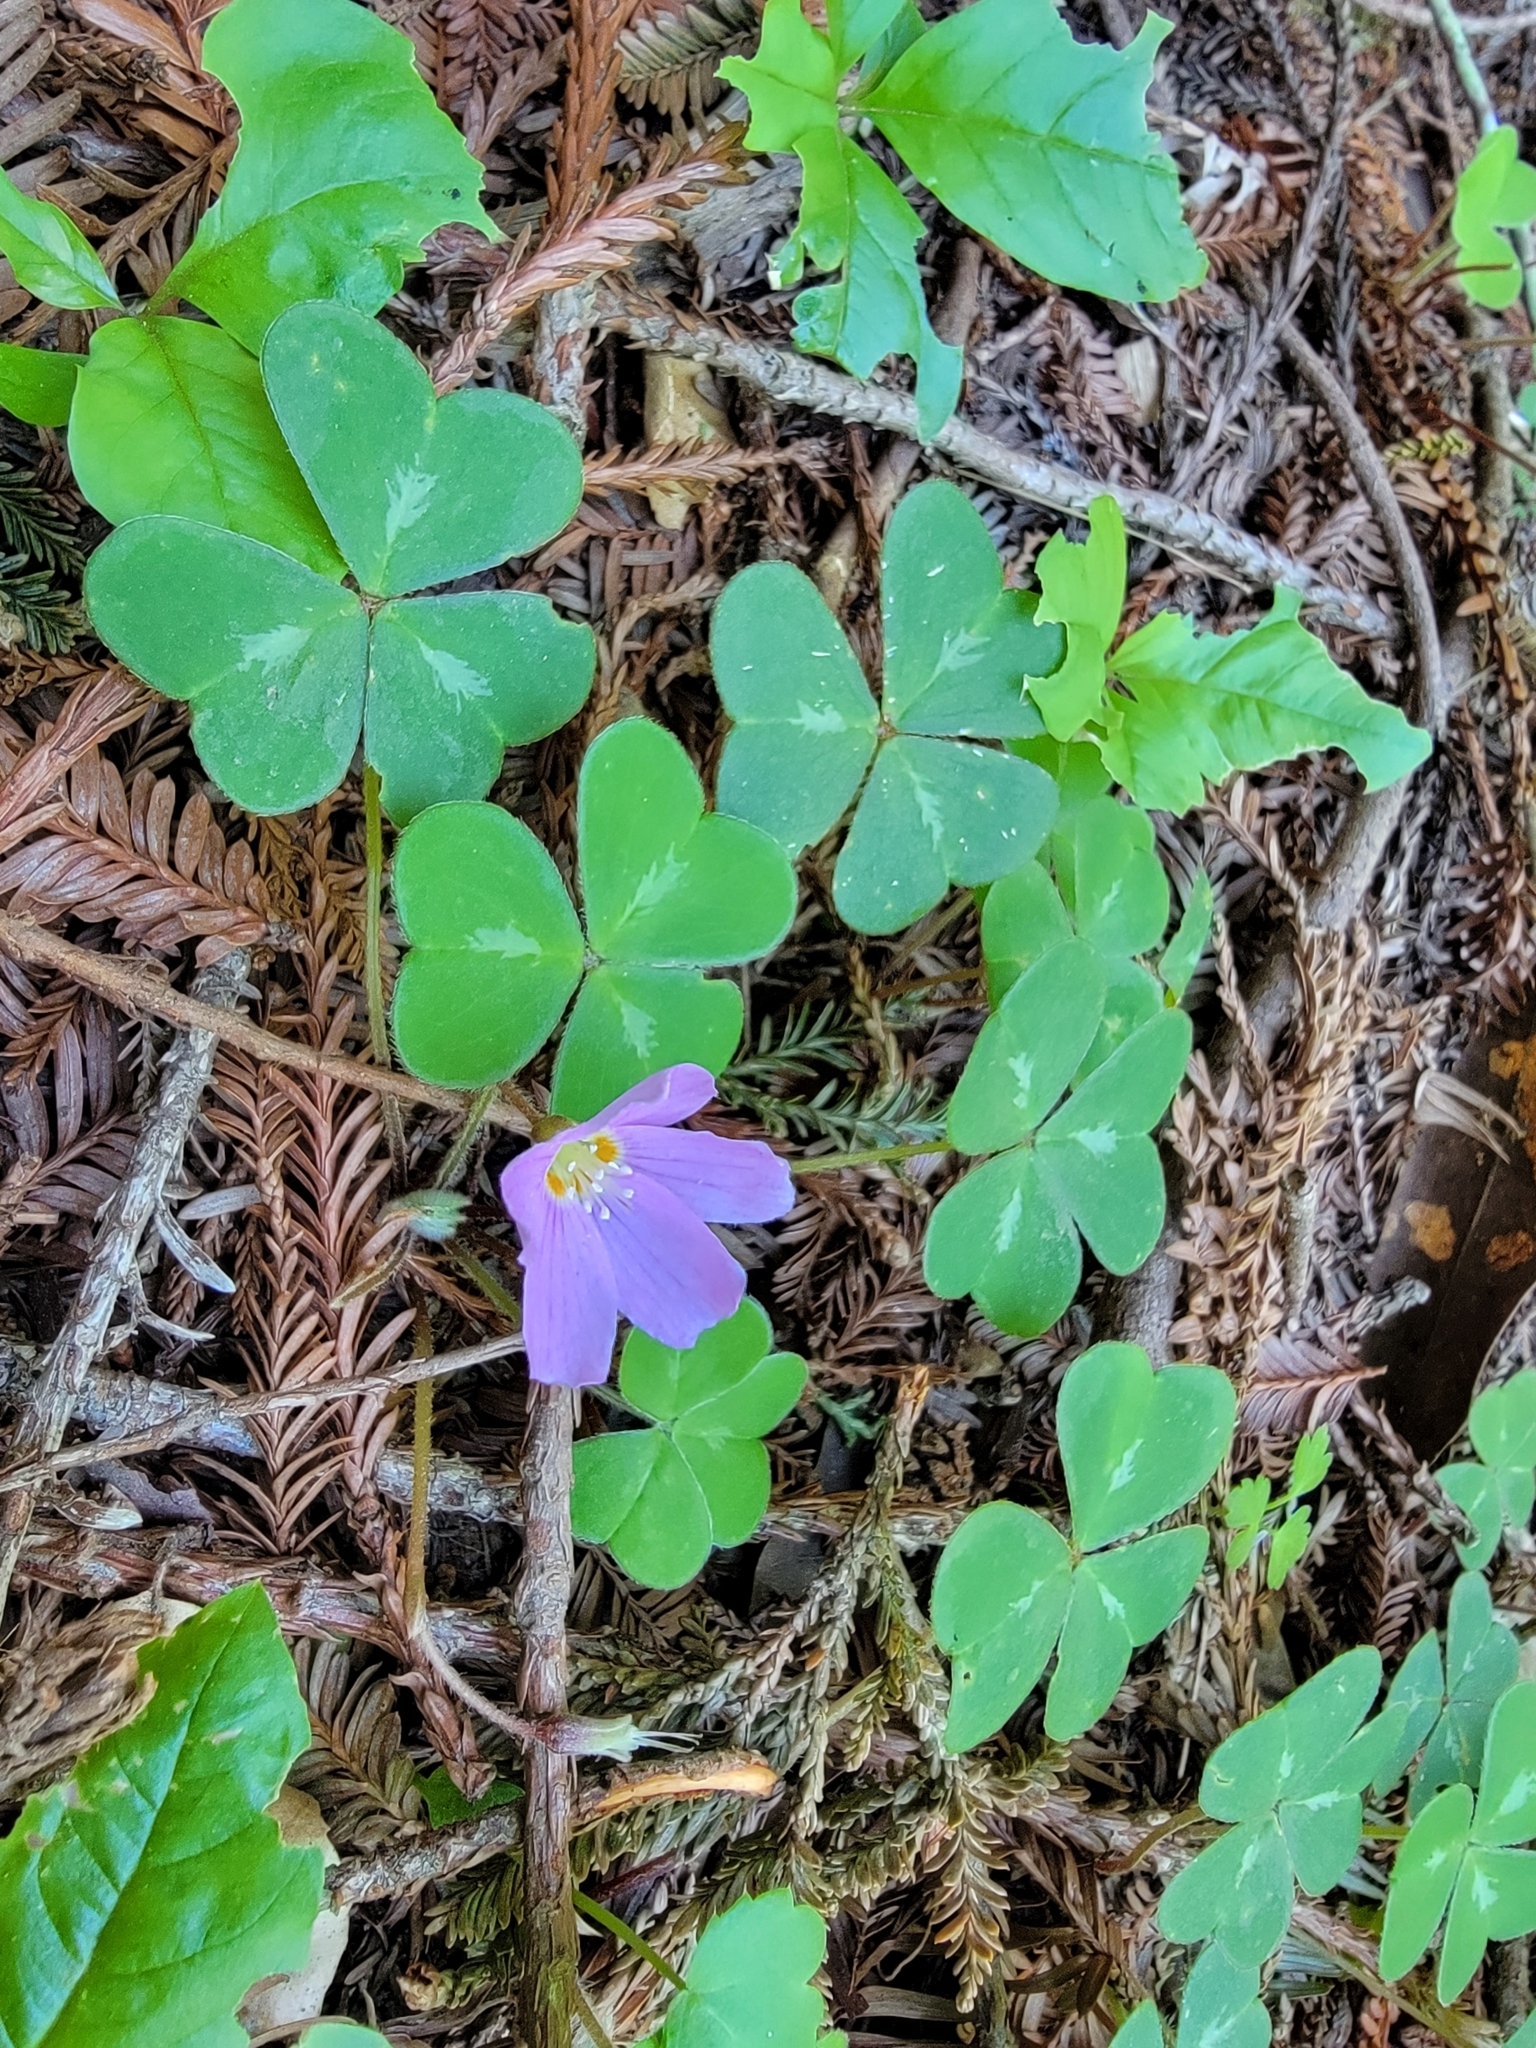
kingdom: Plantae
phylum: Tracheophyta
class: Magnoliopsida
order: Oxalidales
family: Oxalidaceae
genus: Oxalis
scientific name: Oxalis oregana
